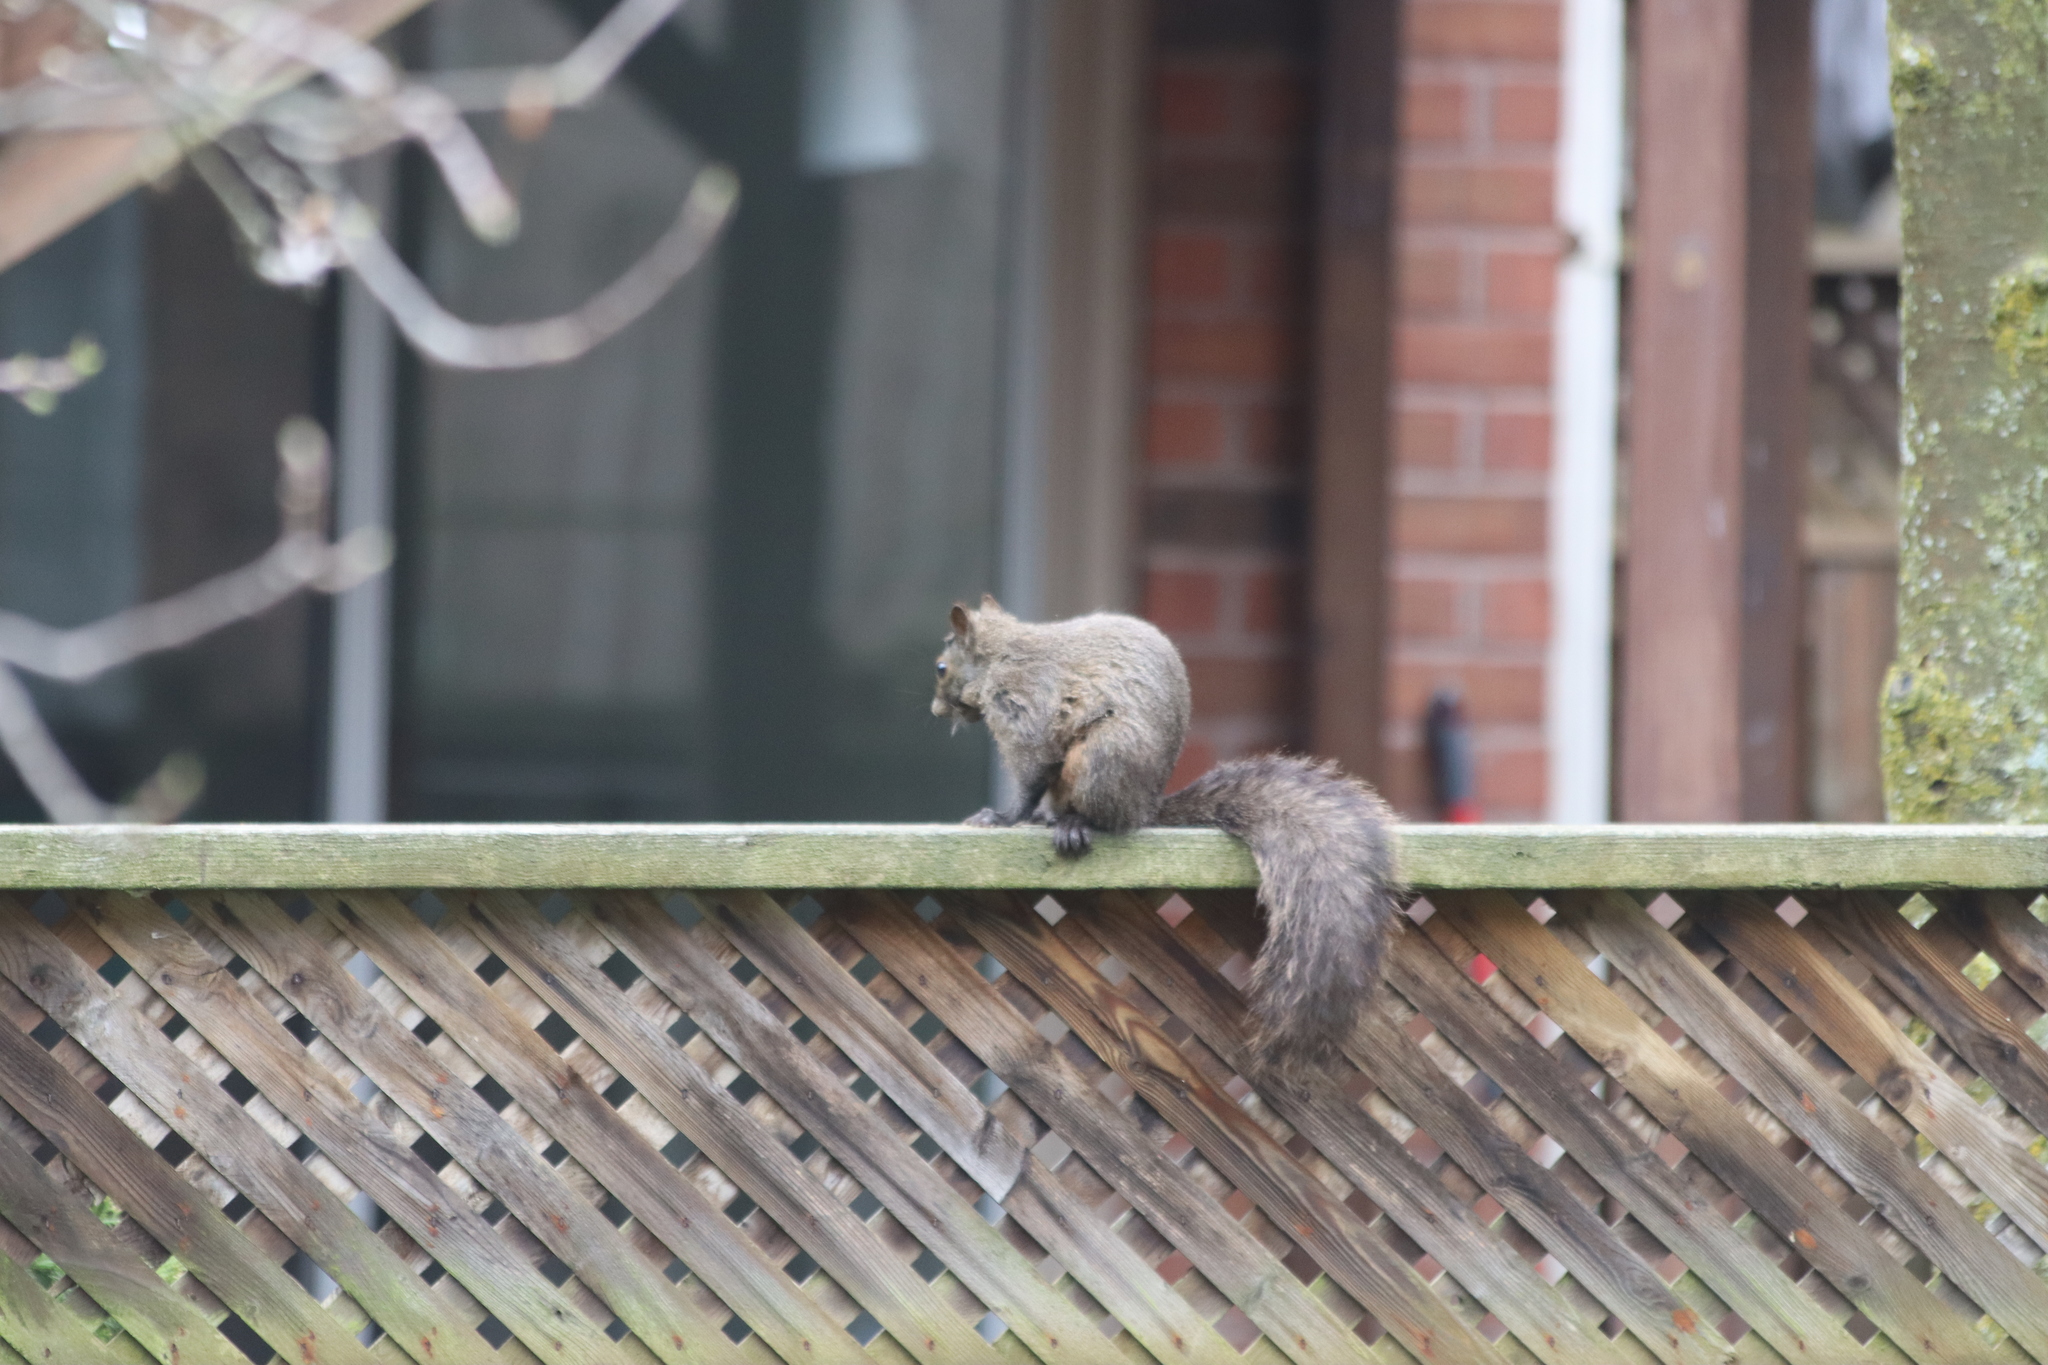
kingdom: Animalia
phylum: Chordata
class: Mammalia
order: Rodentia
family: Sciuridae
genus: Sciurus
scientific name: Sciurus carolinensis
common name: Eastern gray squirrel
